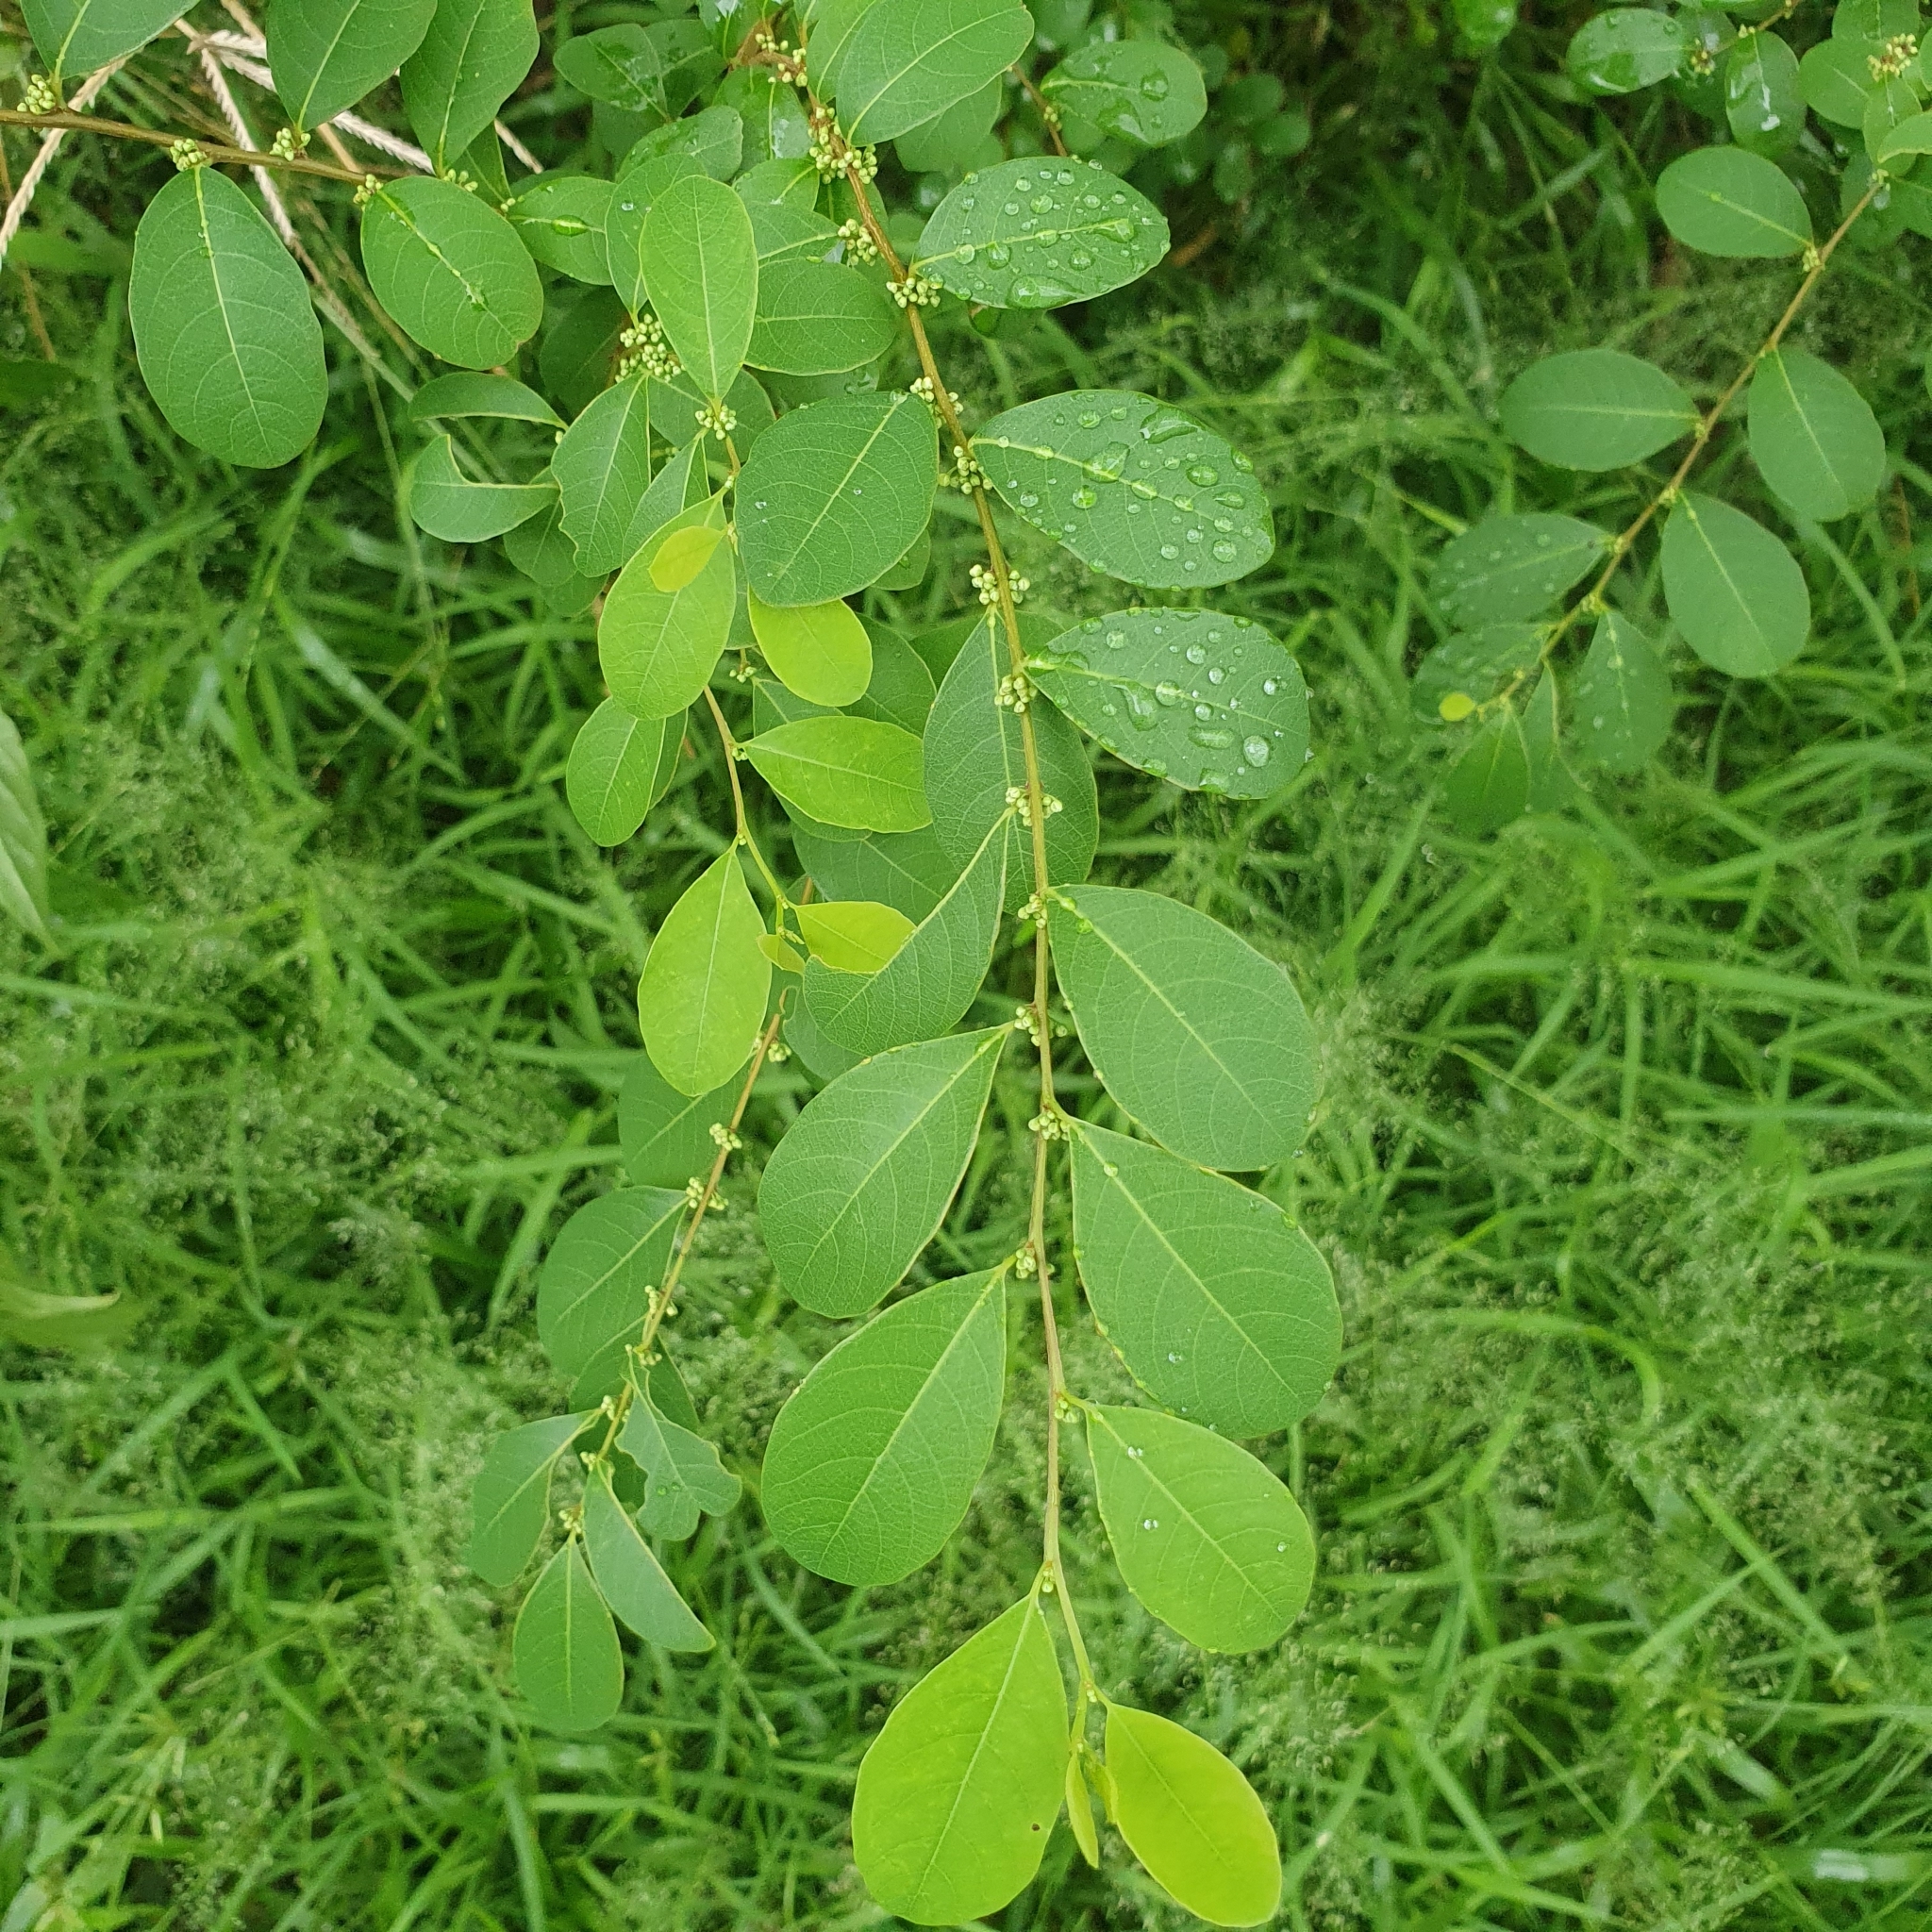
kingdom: Plantae
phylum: Tracheophyta
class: Magnoliopsida
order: Malpighiales
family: Phyllanthaceae
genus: Flueggea
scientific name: Flueggea virosa
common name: Common bushweed
